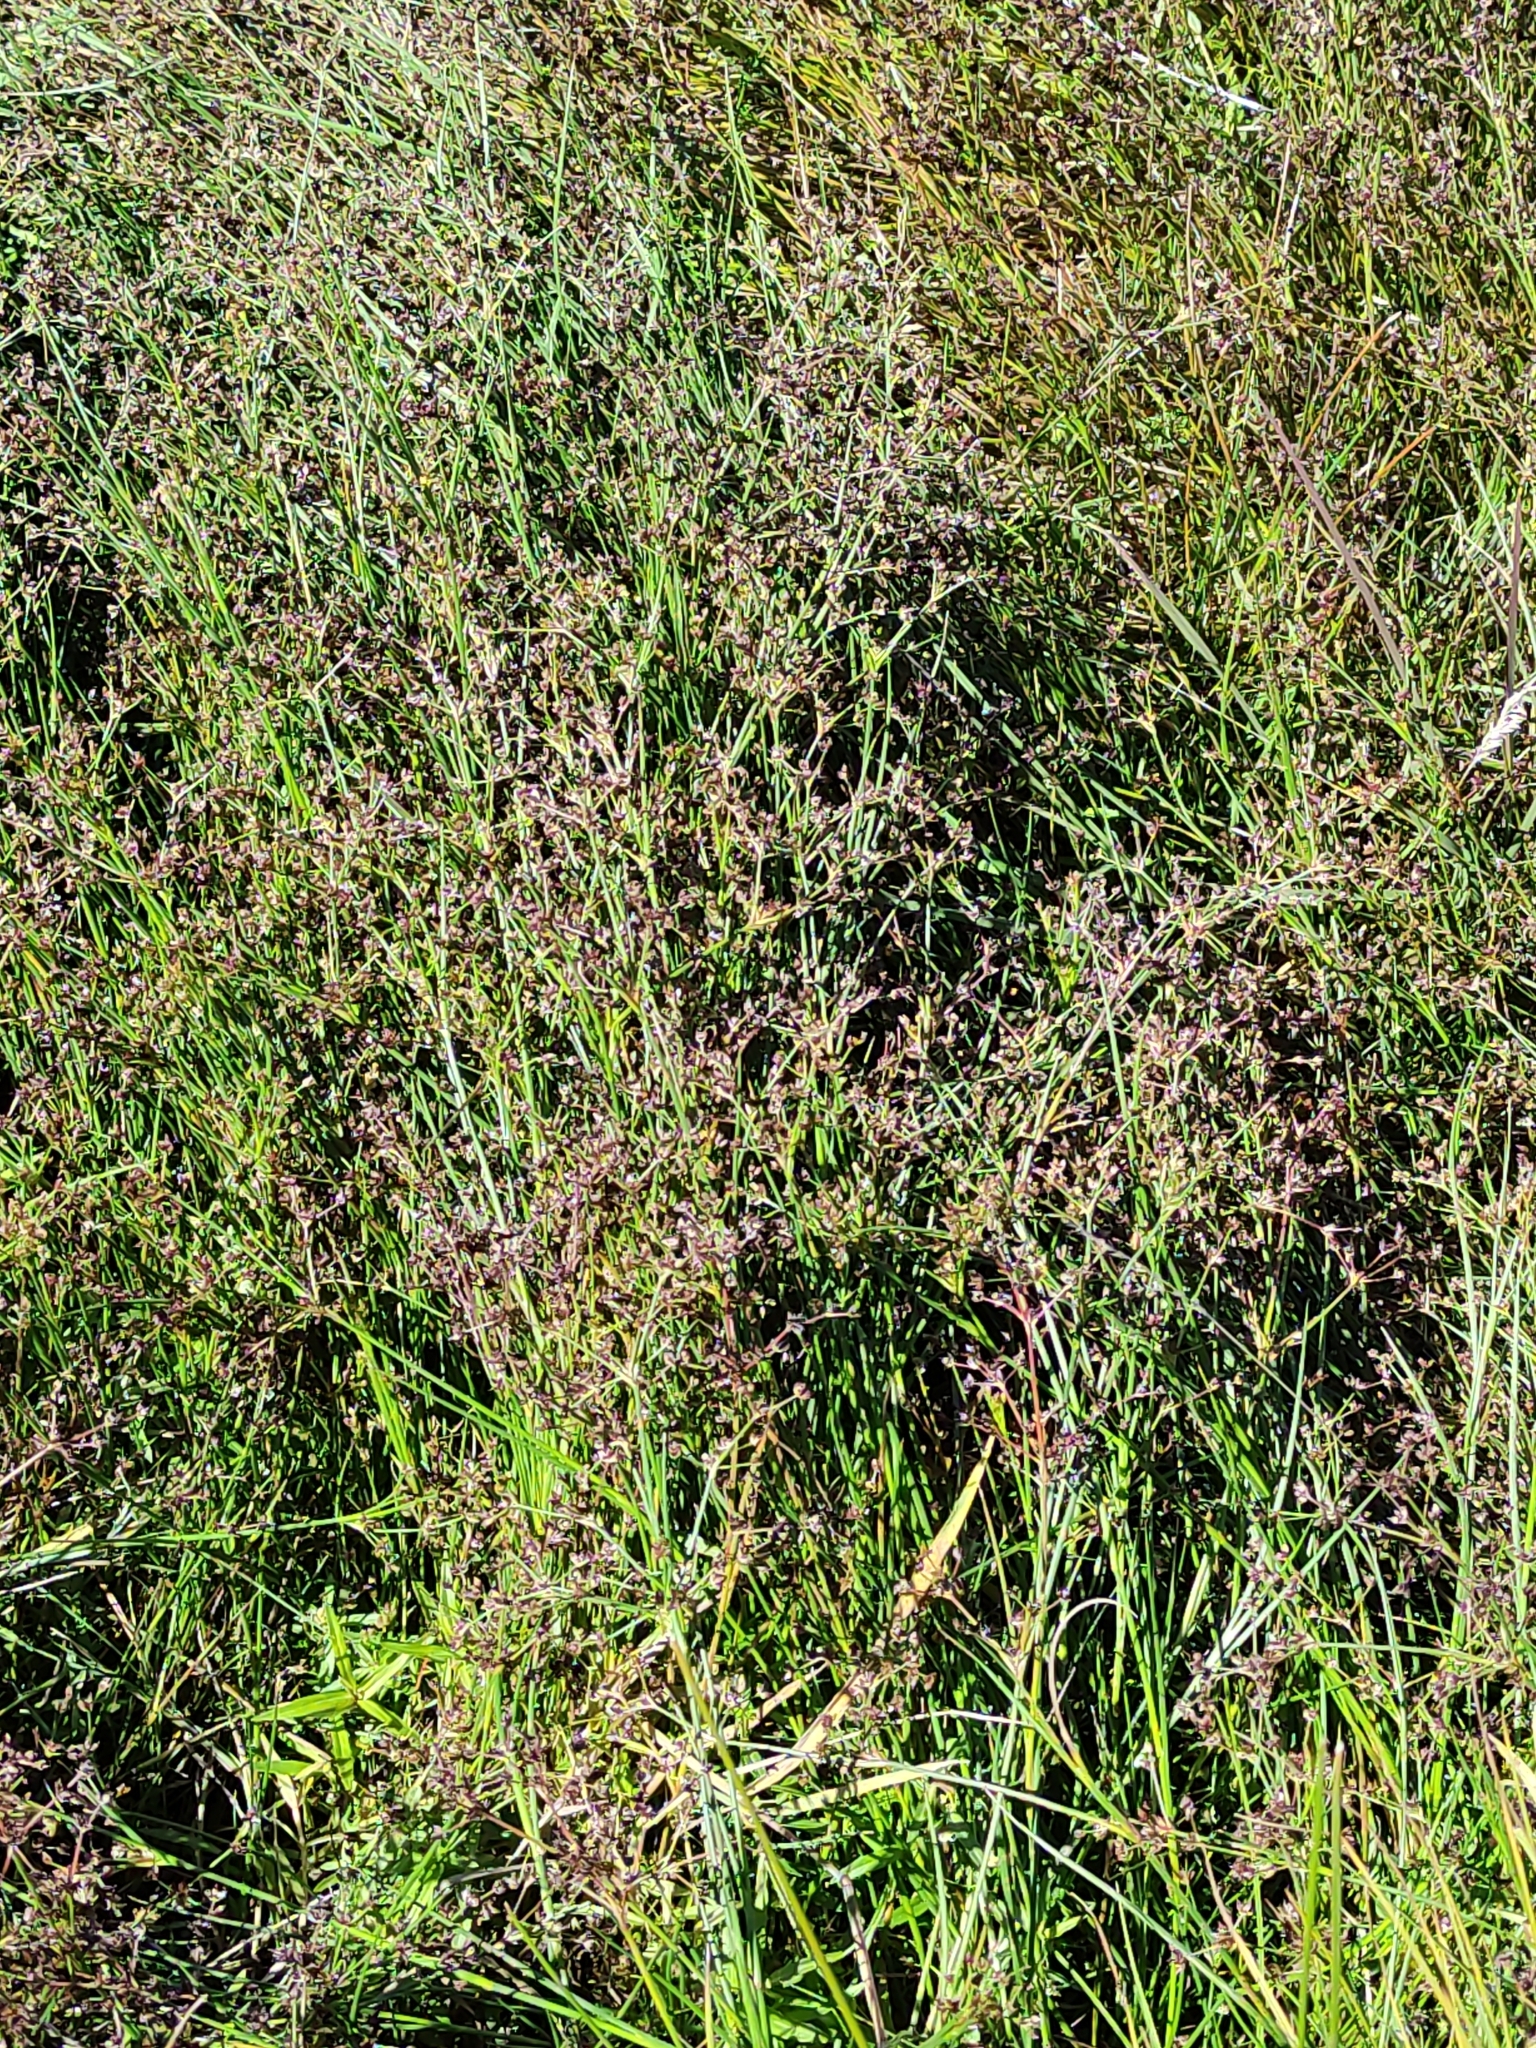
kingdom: Plantae
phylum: Tracheophyta
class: Liliopsida
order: Poales
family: Juncaceae
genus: Juncus
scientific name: Juncus articulatus
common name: Jointed rush
